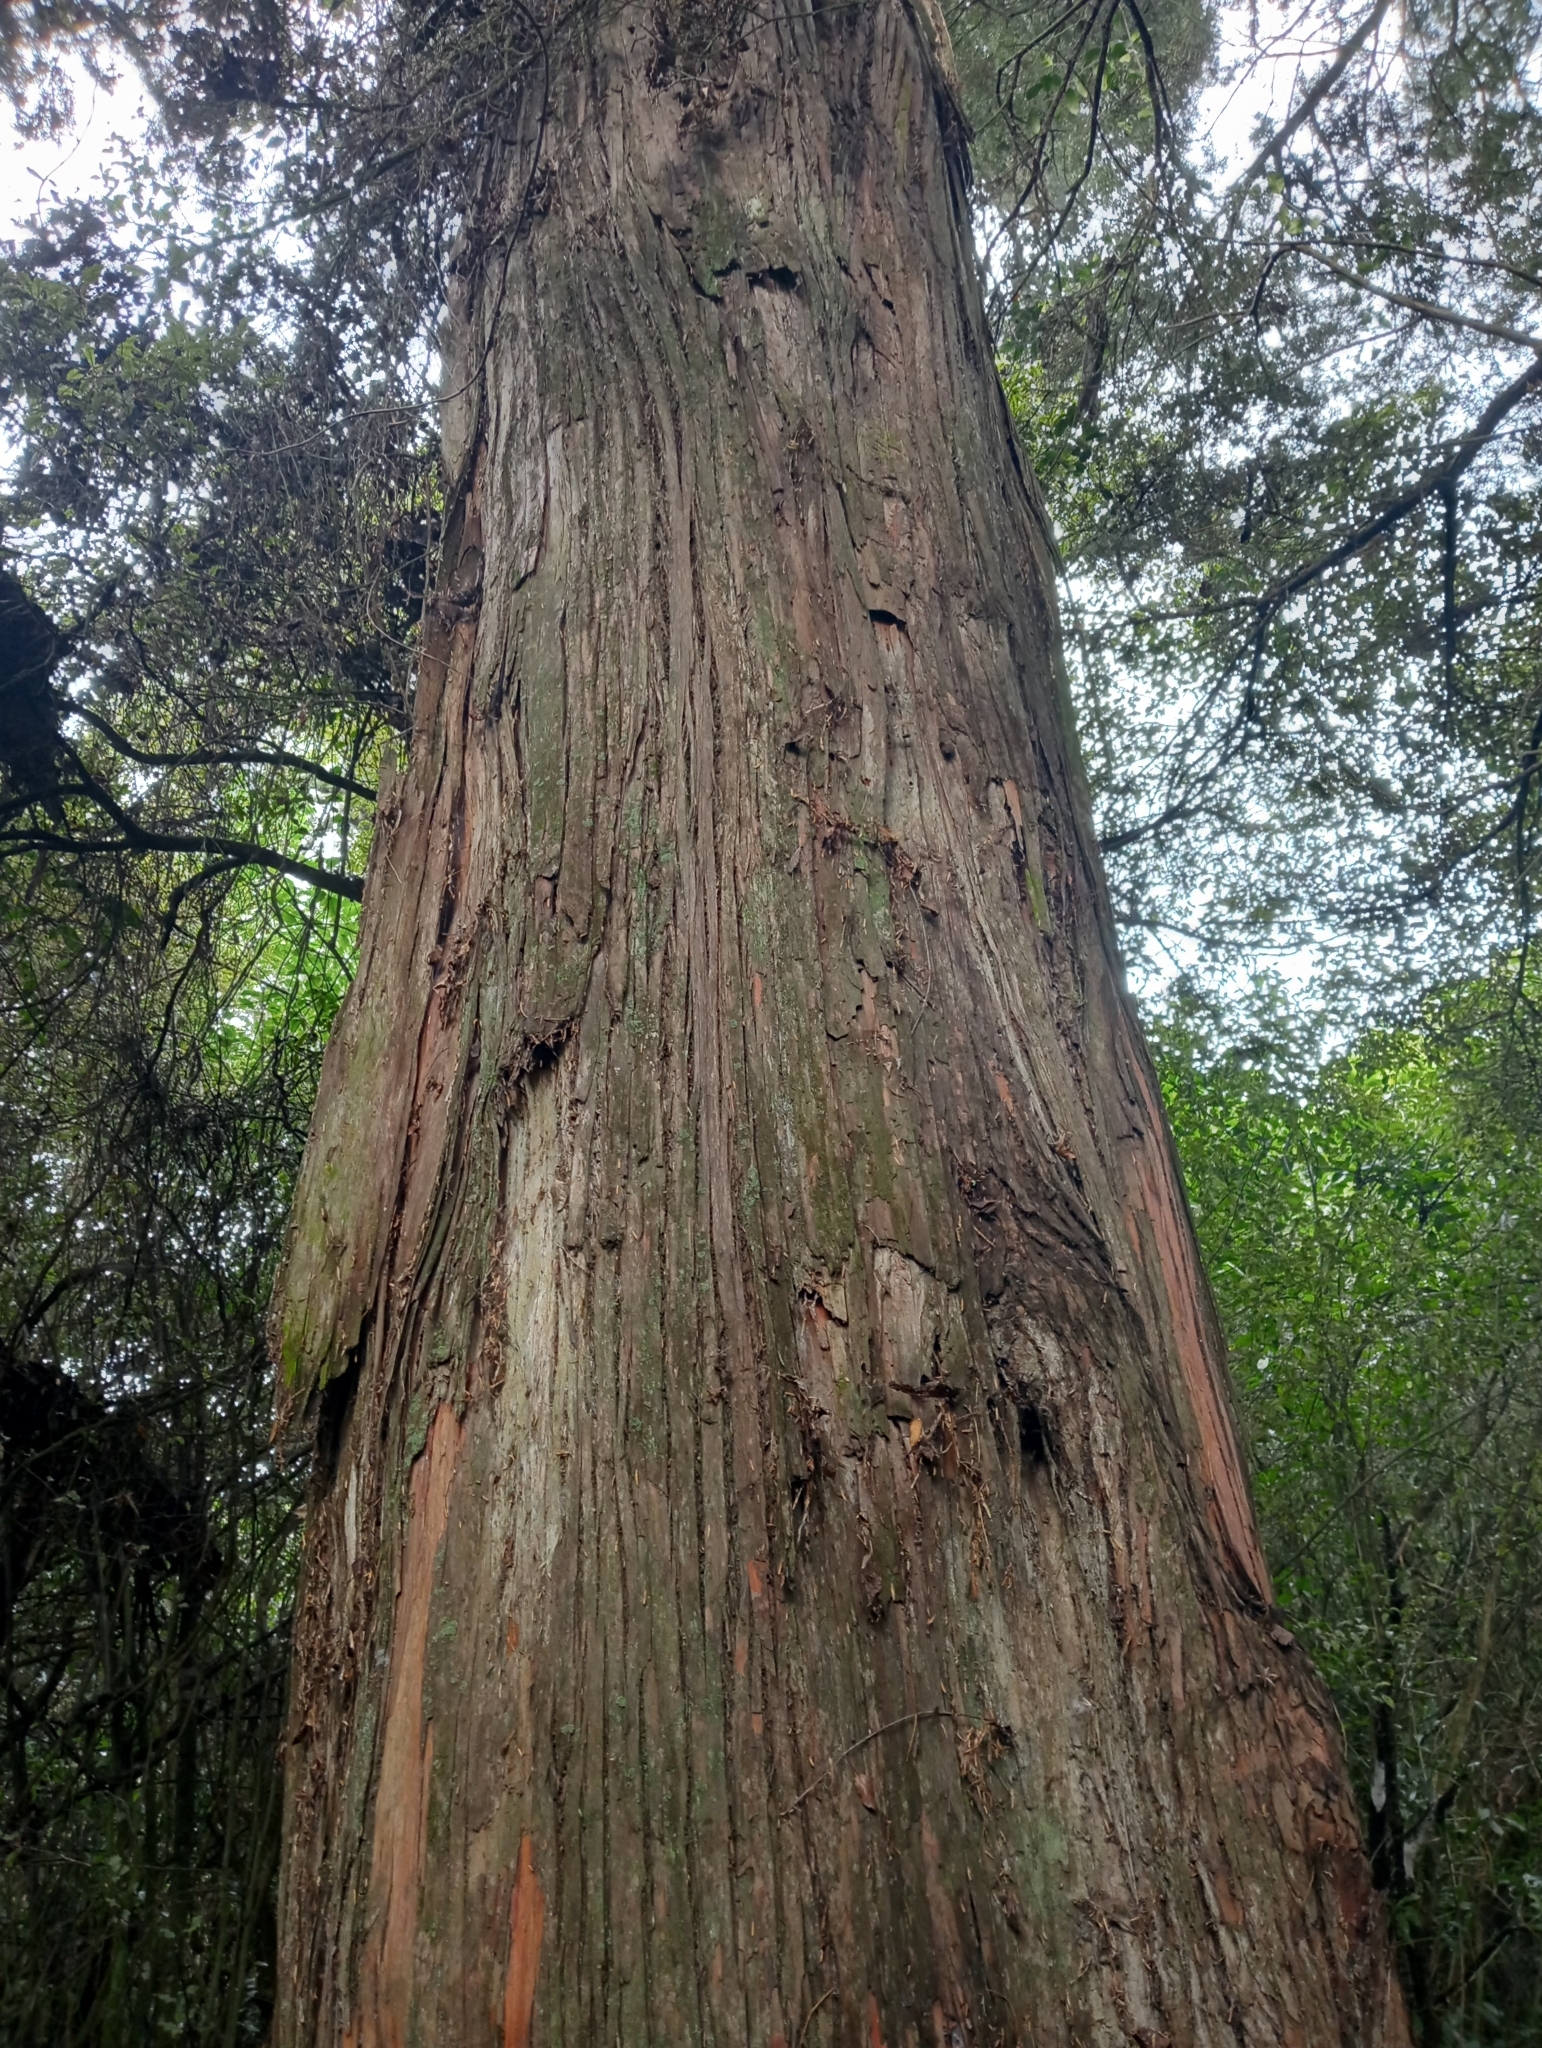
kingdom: Plantae
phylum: Tracheophyta
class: Pinopsida
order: Pinales
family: Podocarpaceae
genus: Podocarpus
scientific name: Podocarpus totara
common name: Totara
